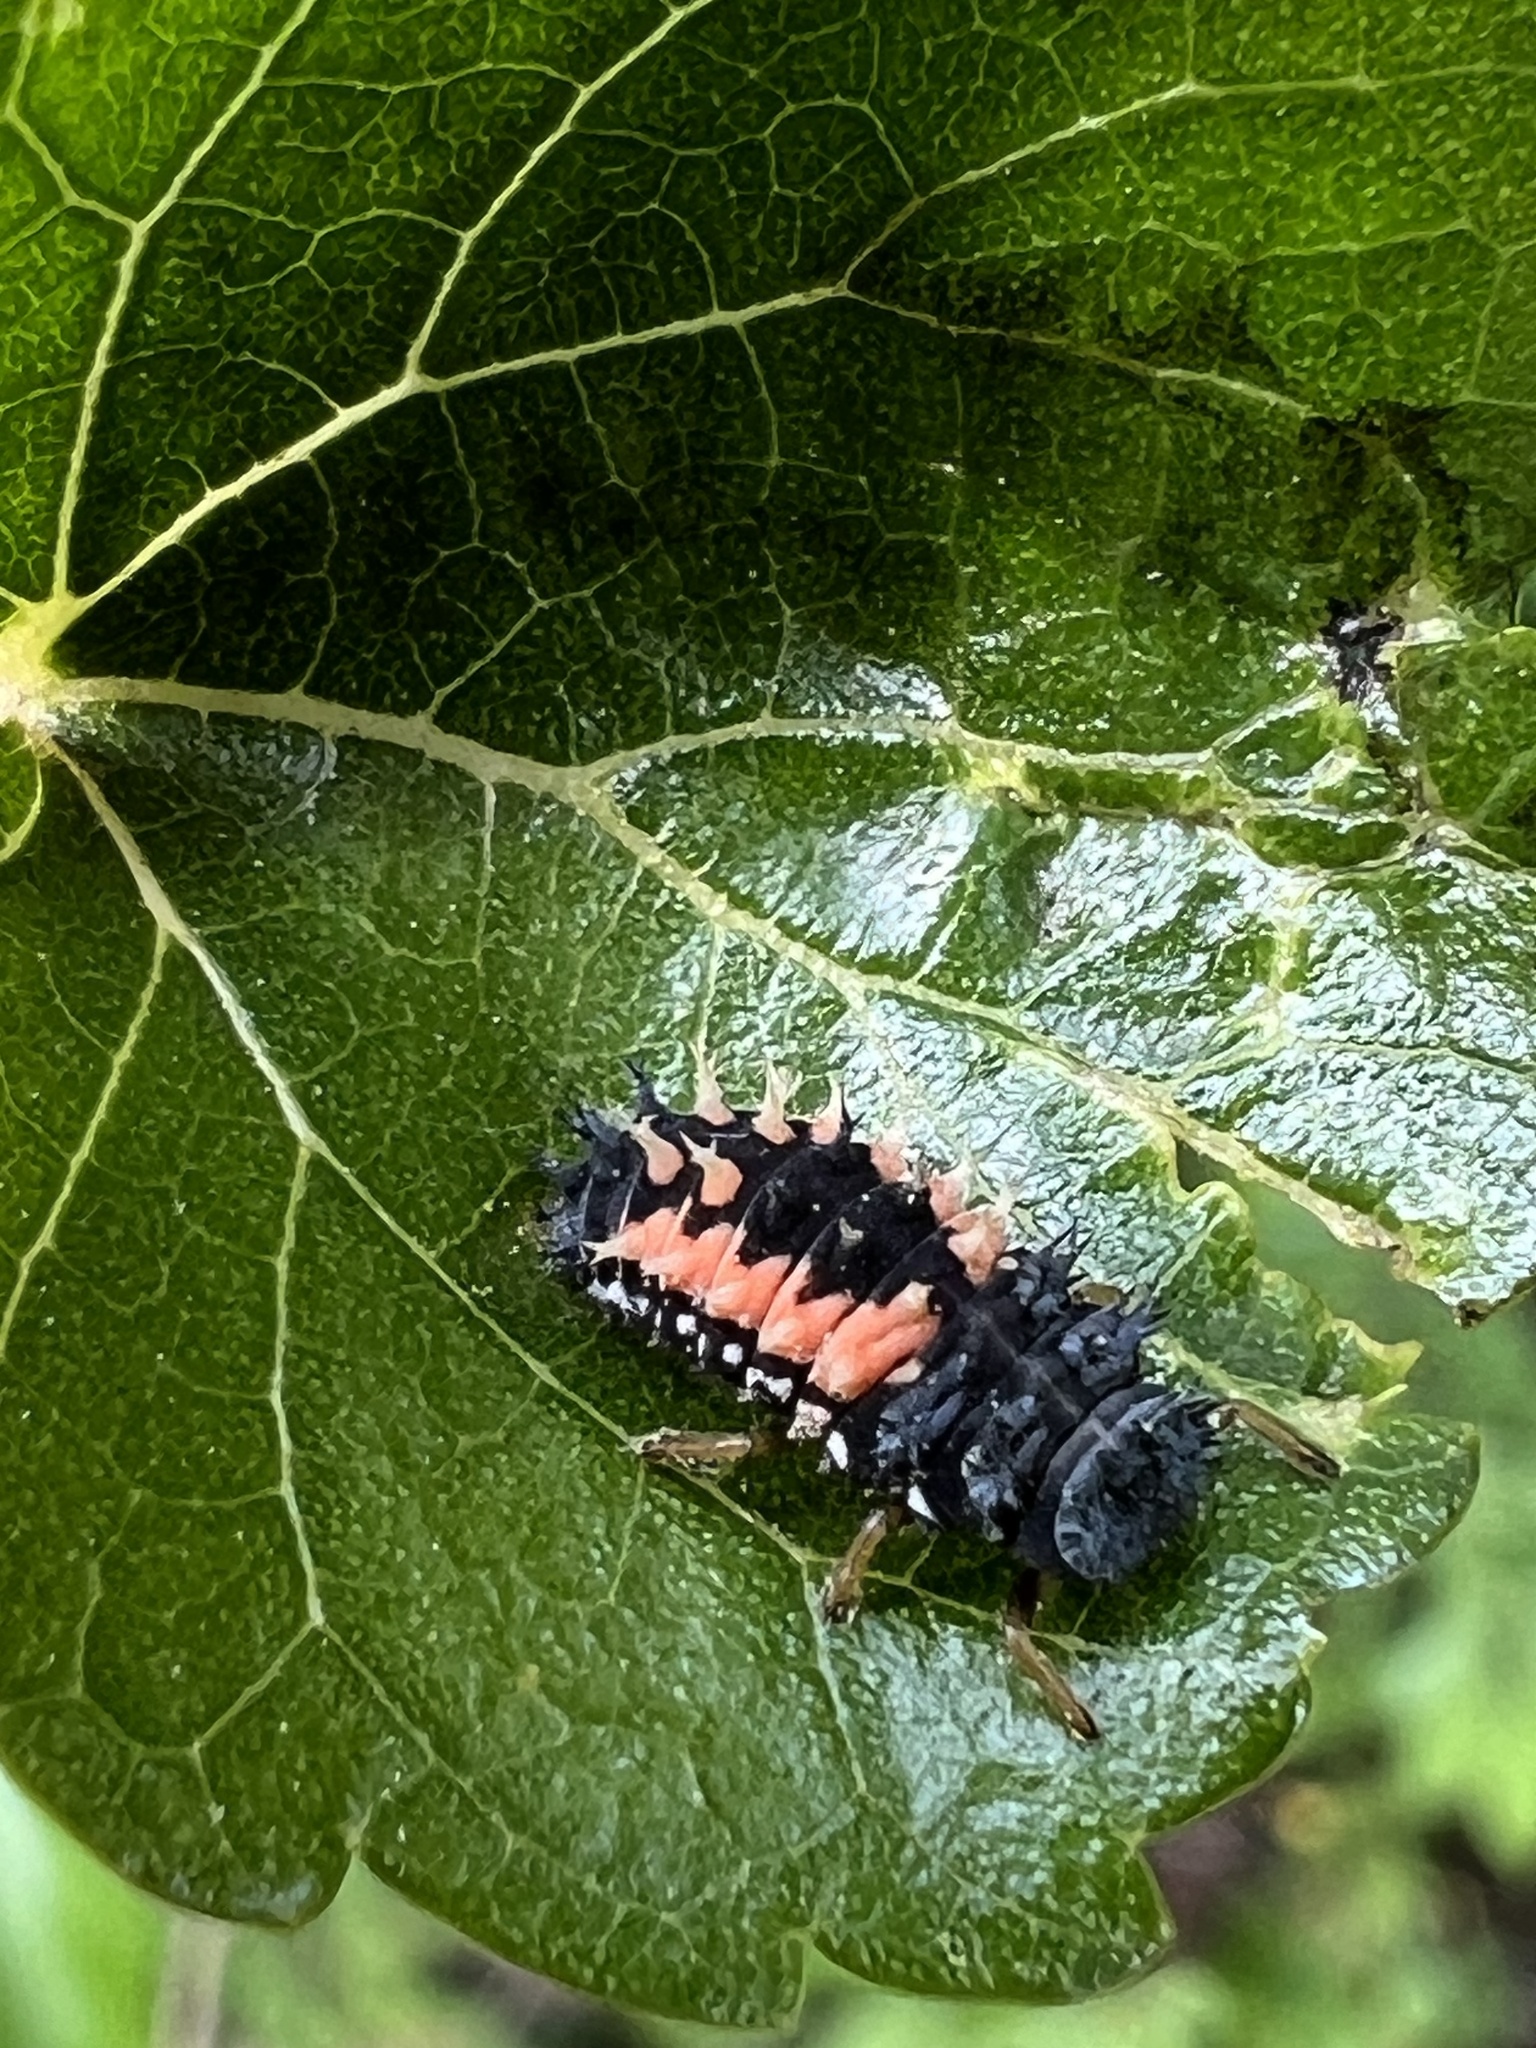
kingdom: Animalia
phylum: Arthropoda
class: Insecta
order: Coleoptera
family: Coccinellidae
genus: Harmonia
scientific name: Harmonia axyridis
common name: Harlequin ladybird
